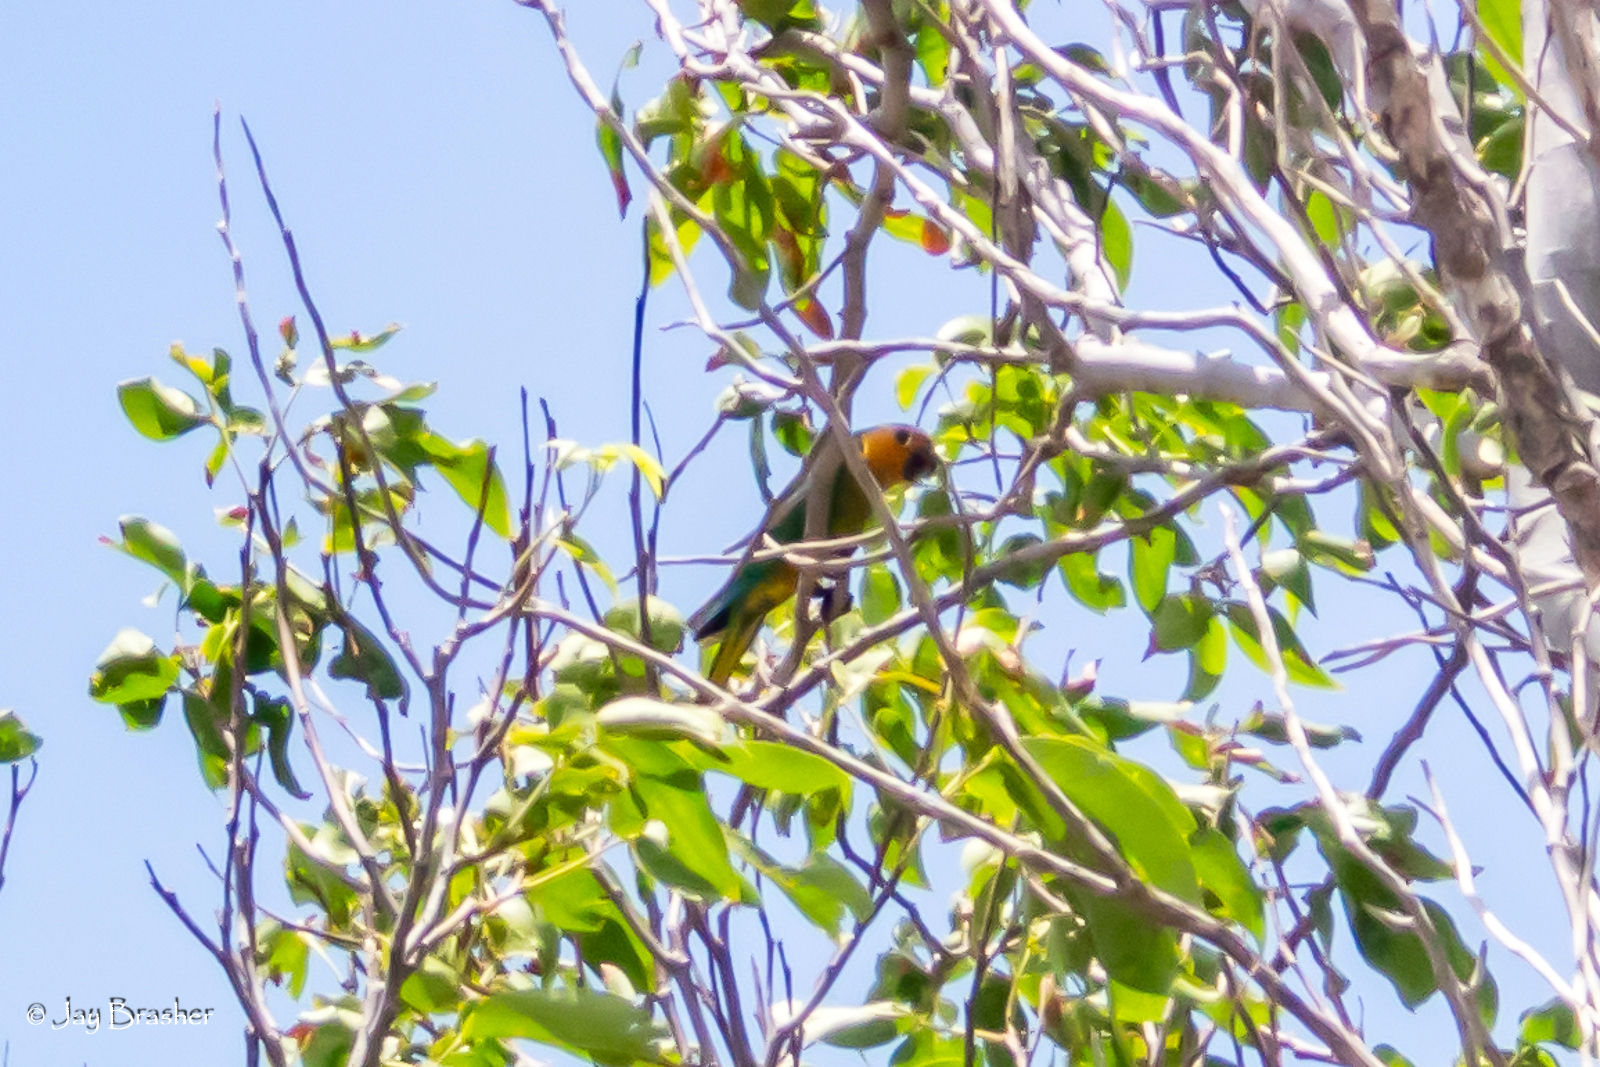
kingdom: Animalia
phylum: Chordata
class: Aves
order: Psittaciformes
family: Psittacidae
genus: Aratinga
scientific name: Aratinga pertinax
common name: Brown-throated parakeet
